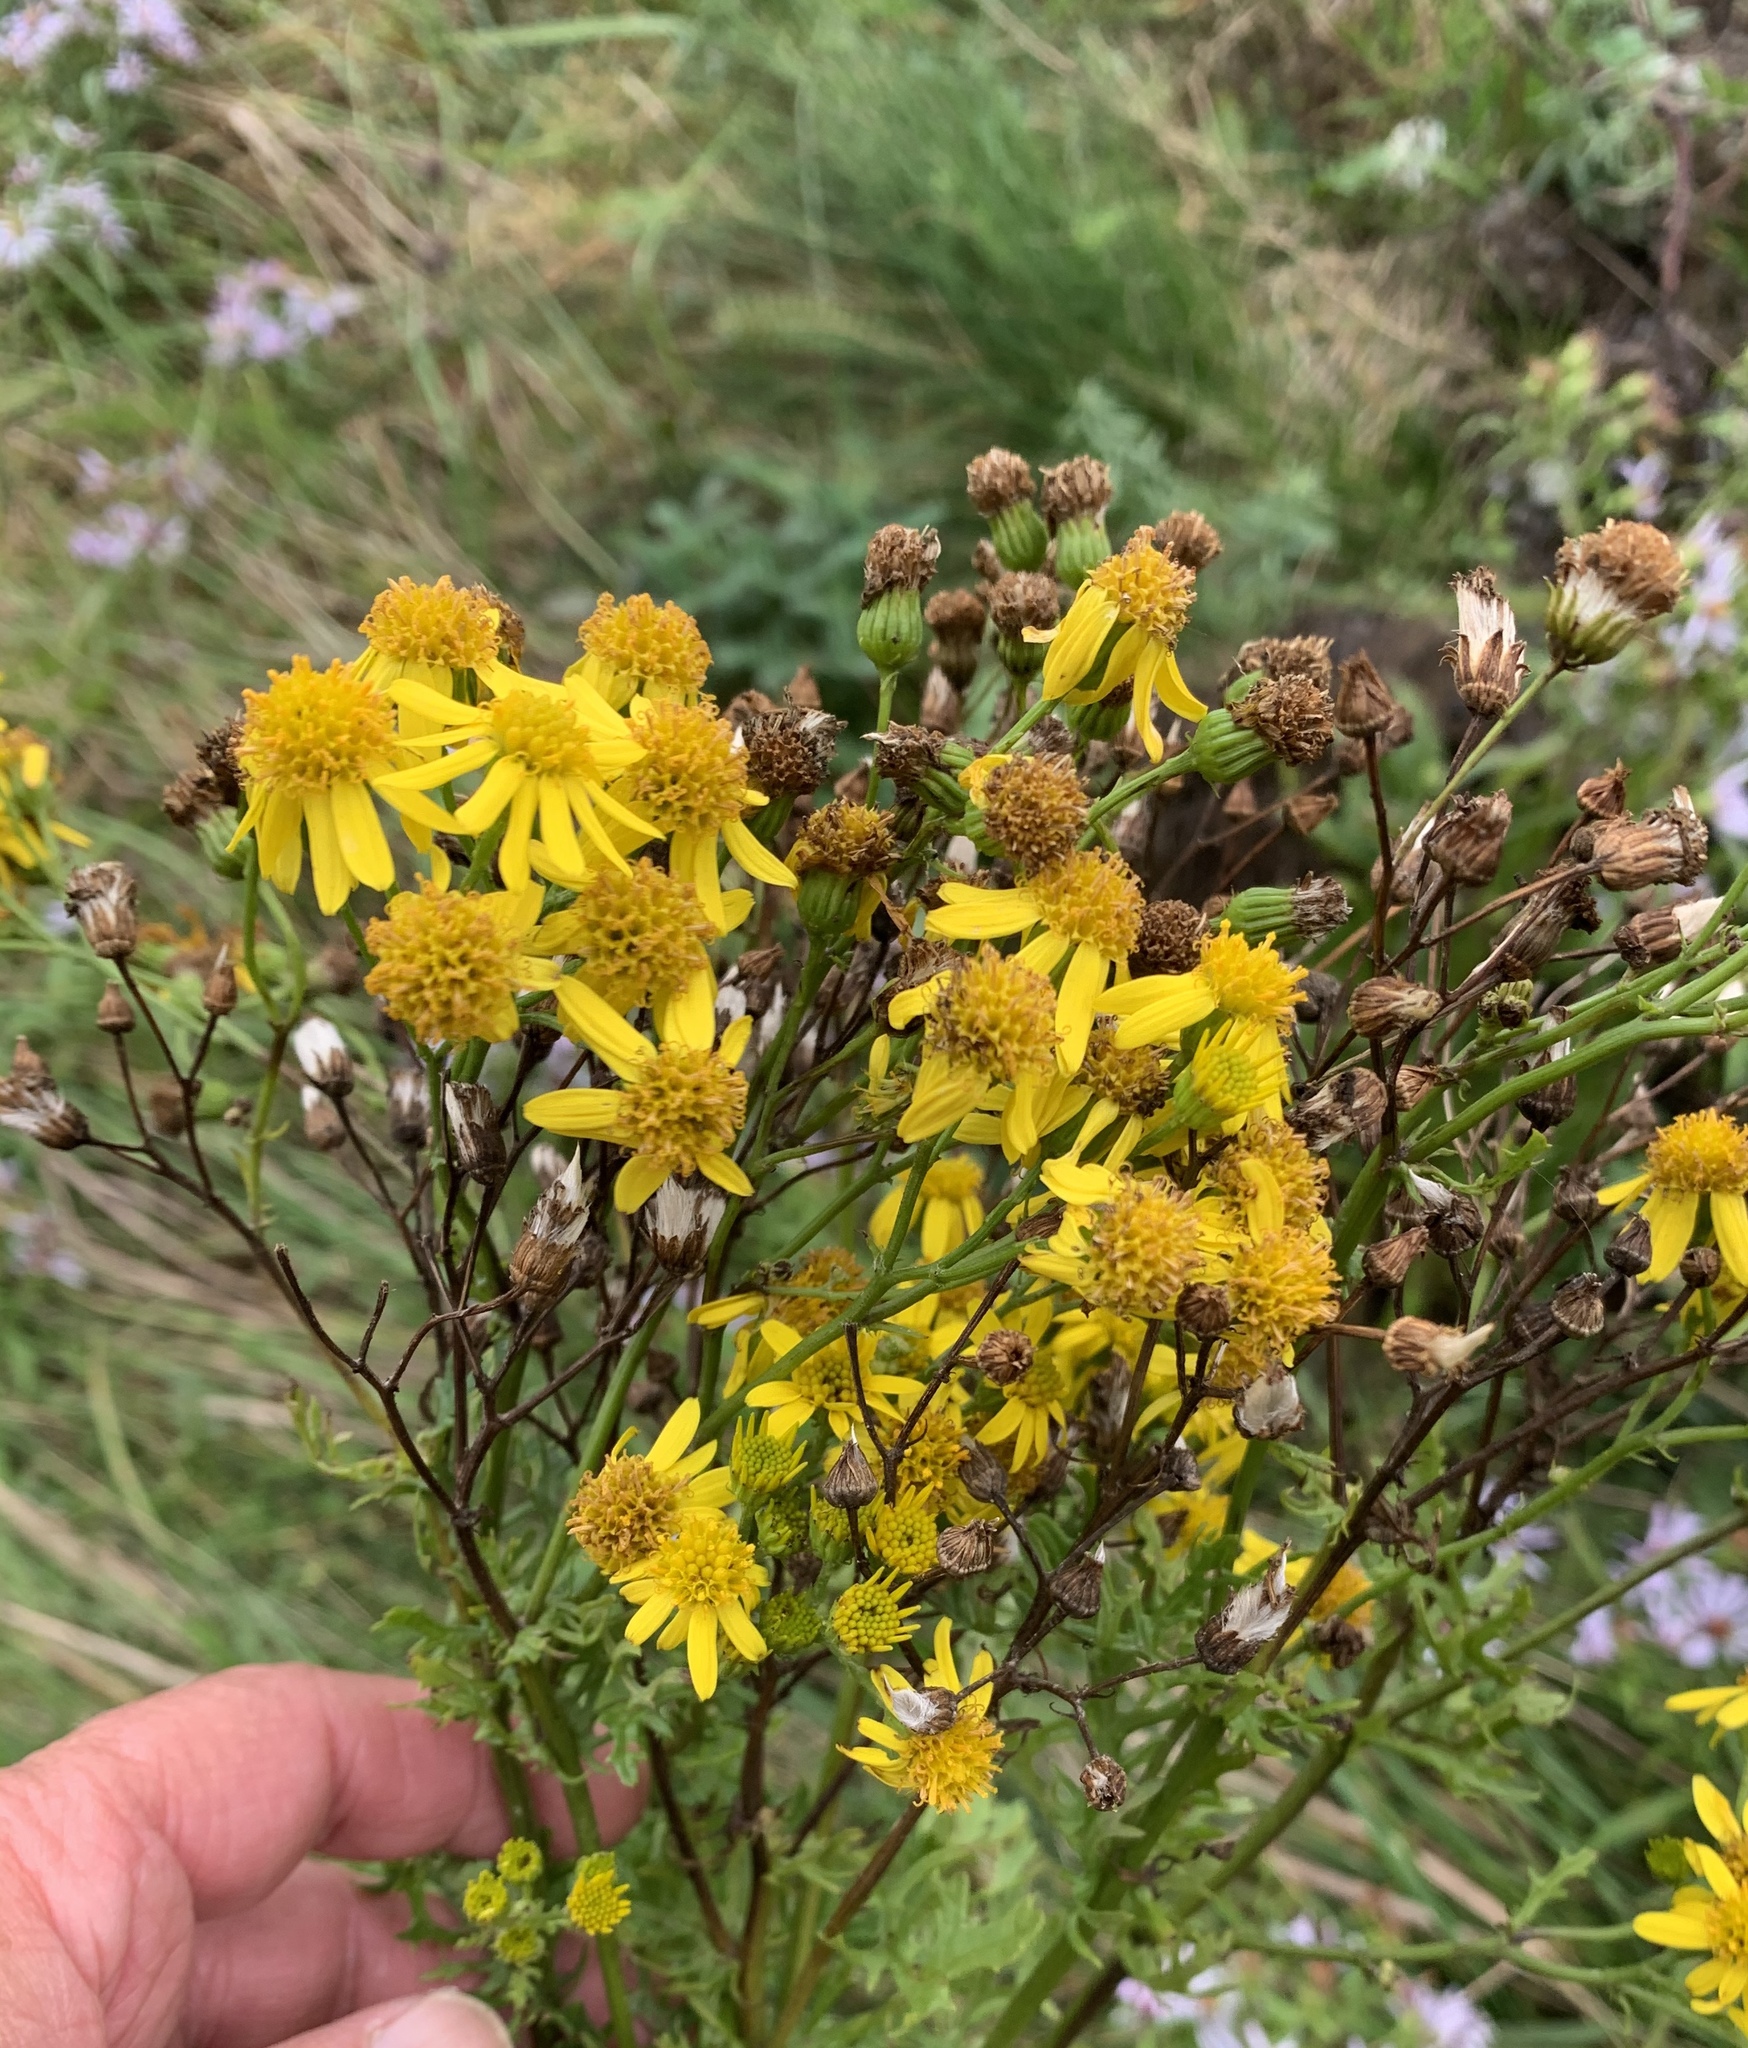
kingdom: Plantae
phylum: Tracheophyta
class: Magnoliopsida
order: Asterales
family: Asteraceae
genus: Jacobaea
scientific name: Jacobaea vulgaris
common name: Stinking willie
